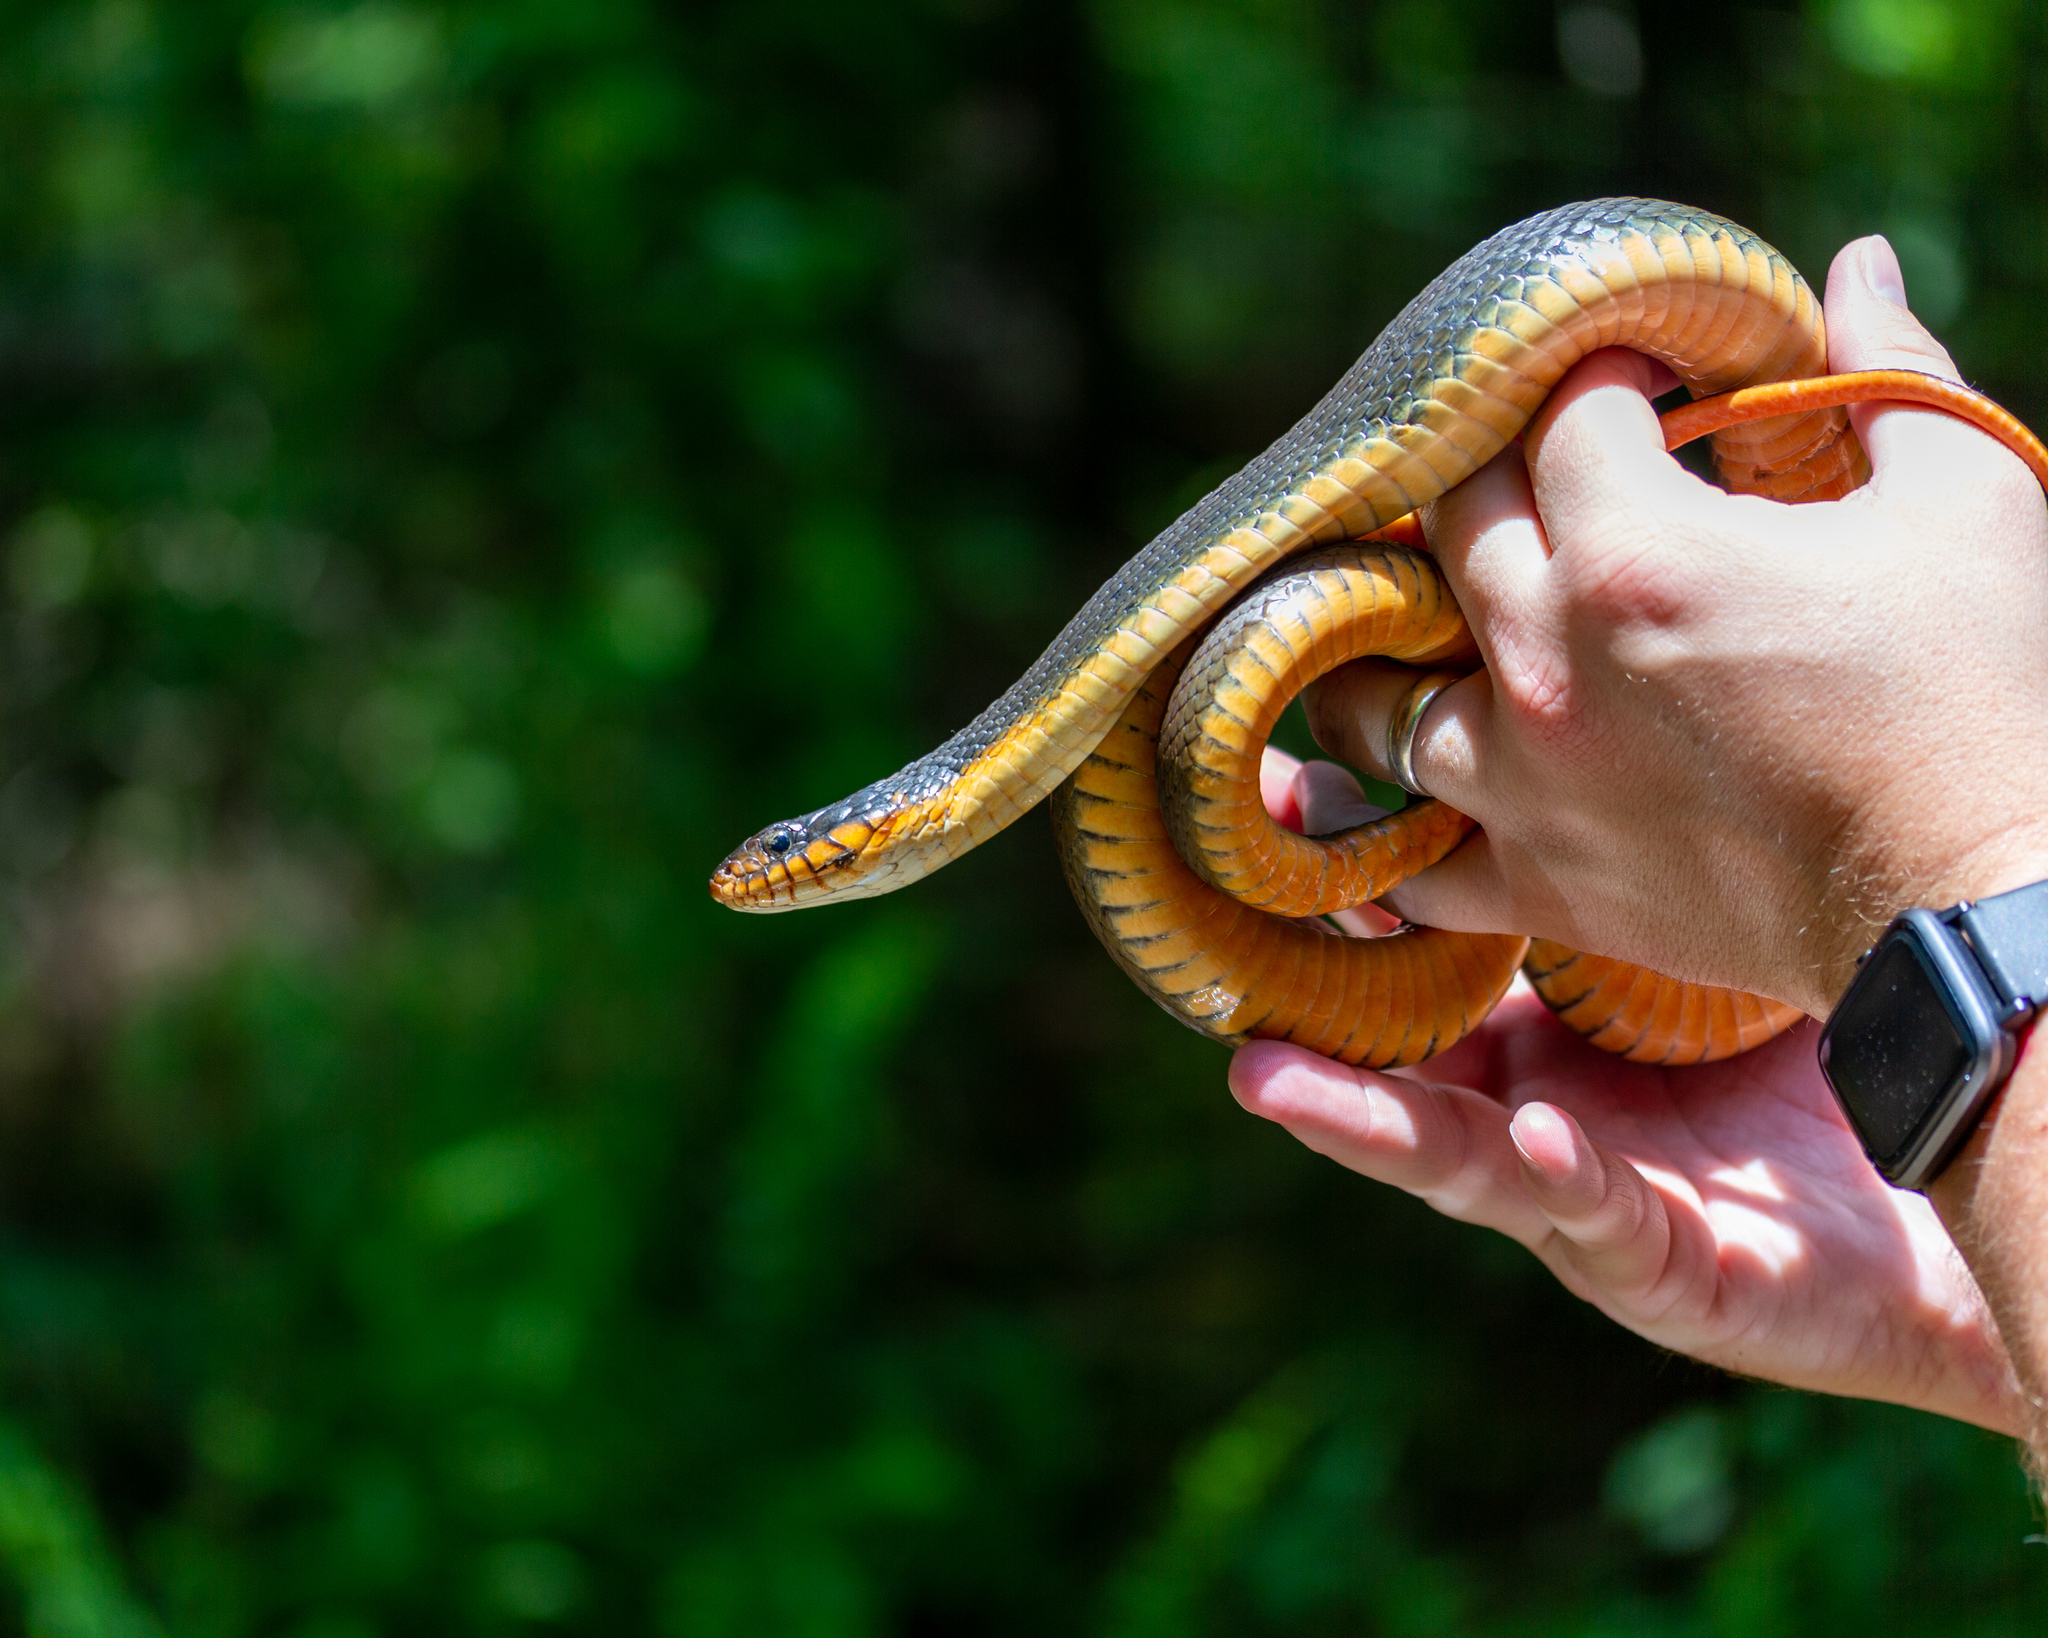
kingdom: Animalia
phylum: Chordata
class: Squamata
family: Colubridae
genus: Nerodia
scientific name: Nerodia erythrogaster
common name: Plainbelly water snake
